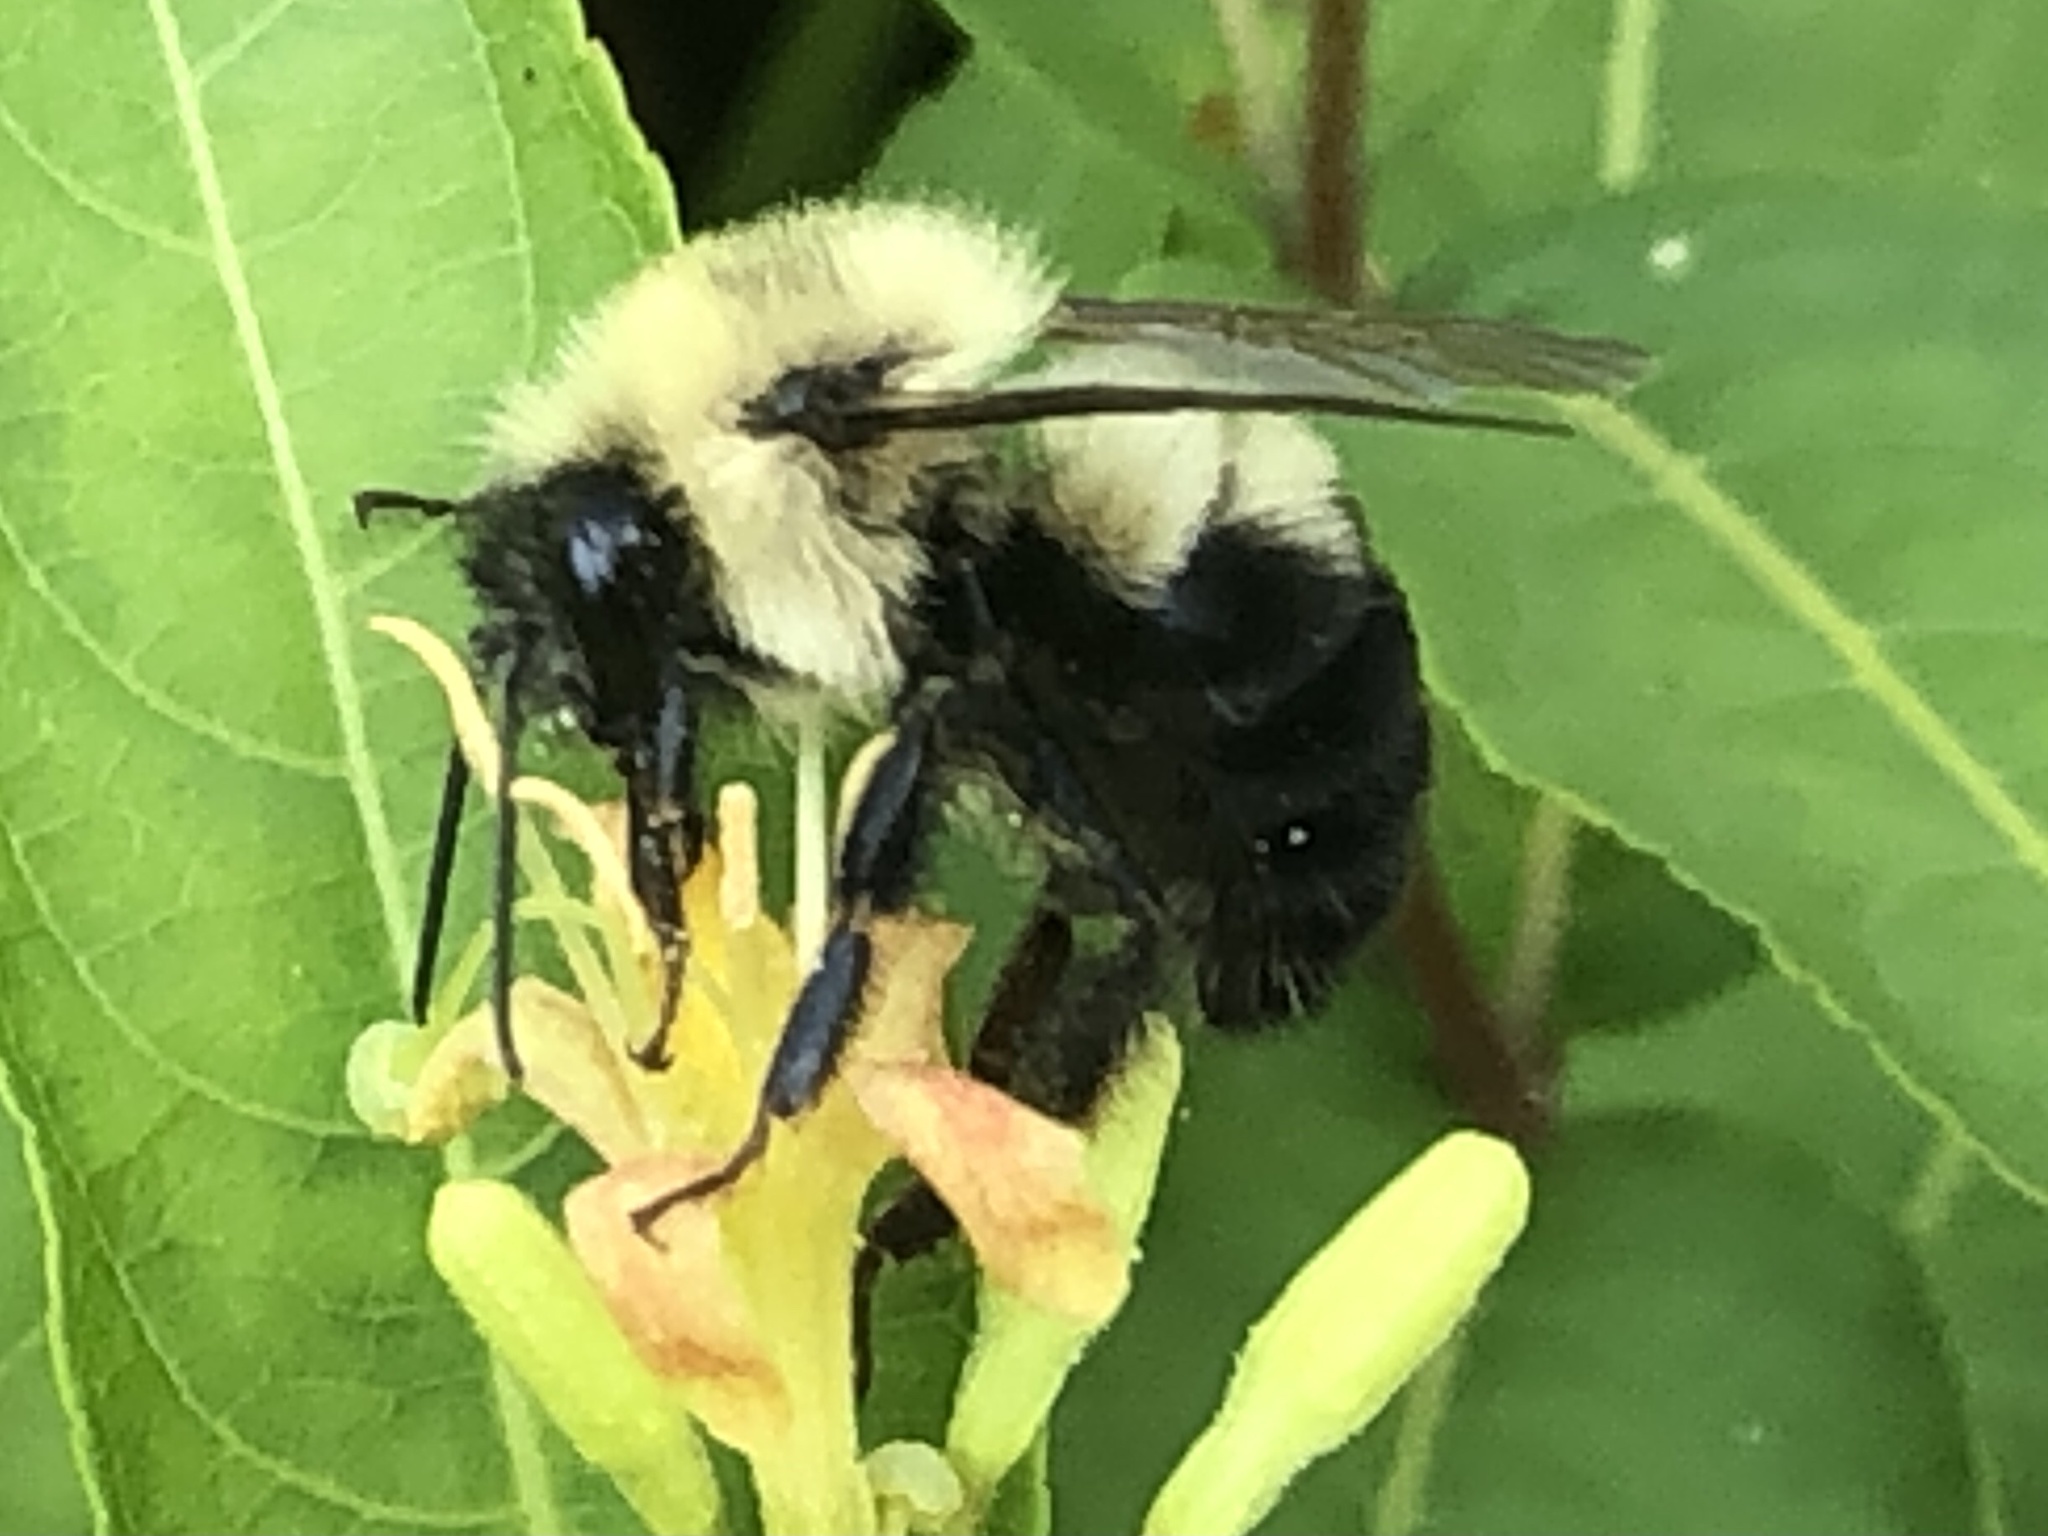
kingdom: Animalia
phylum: Arthropoda
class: Insecta
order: Hymenoptera
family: Apidae
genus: Bombus
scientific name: Bombus bimaculatus
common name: Two-spotted bumble bee
